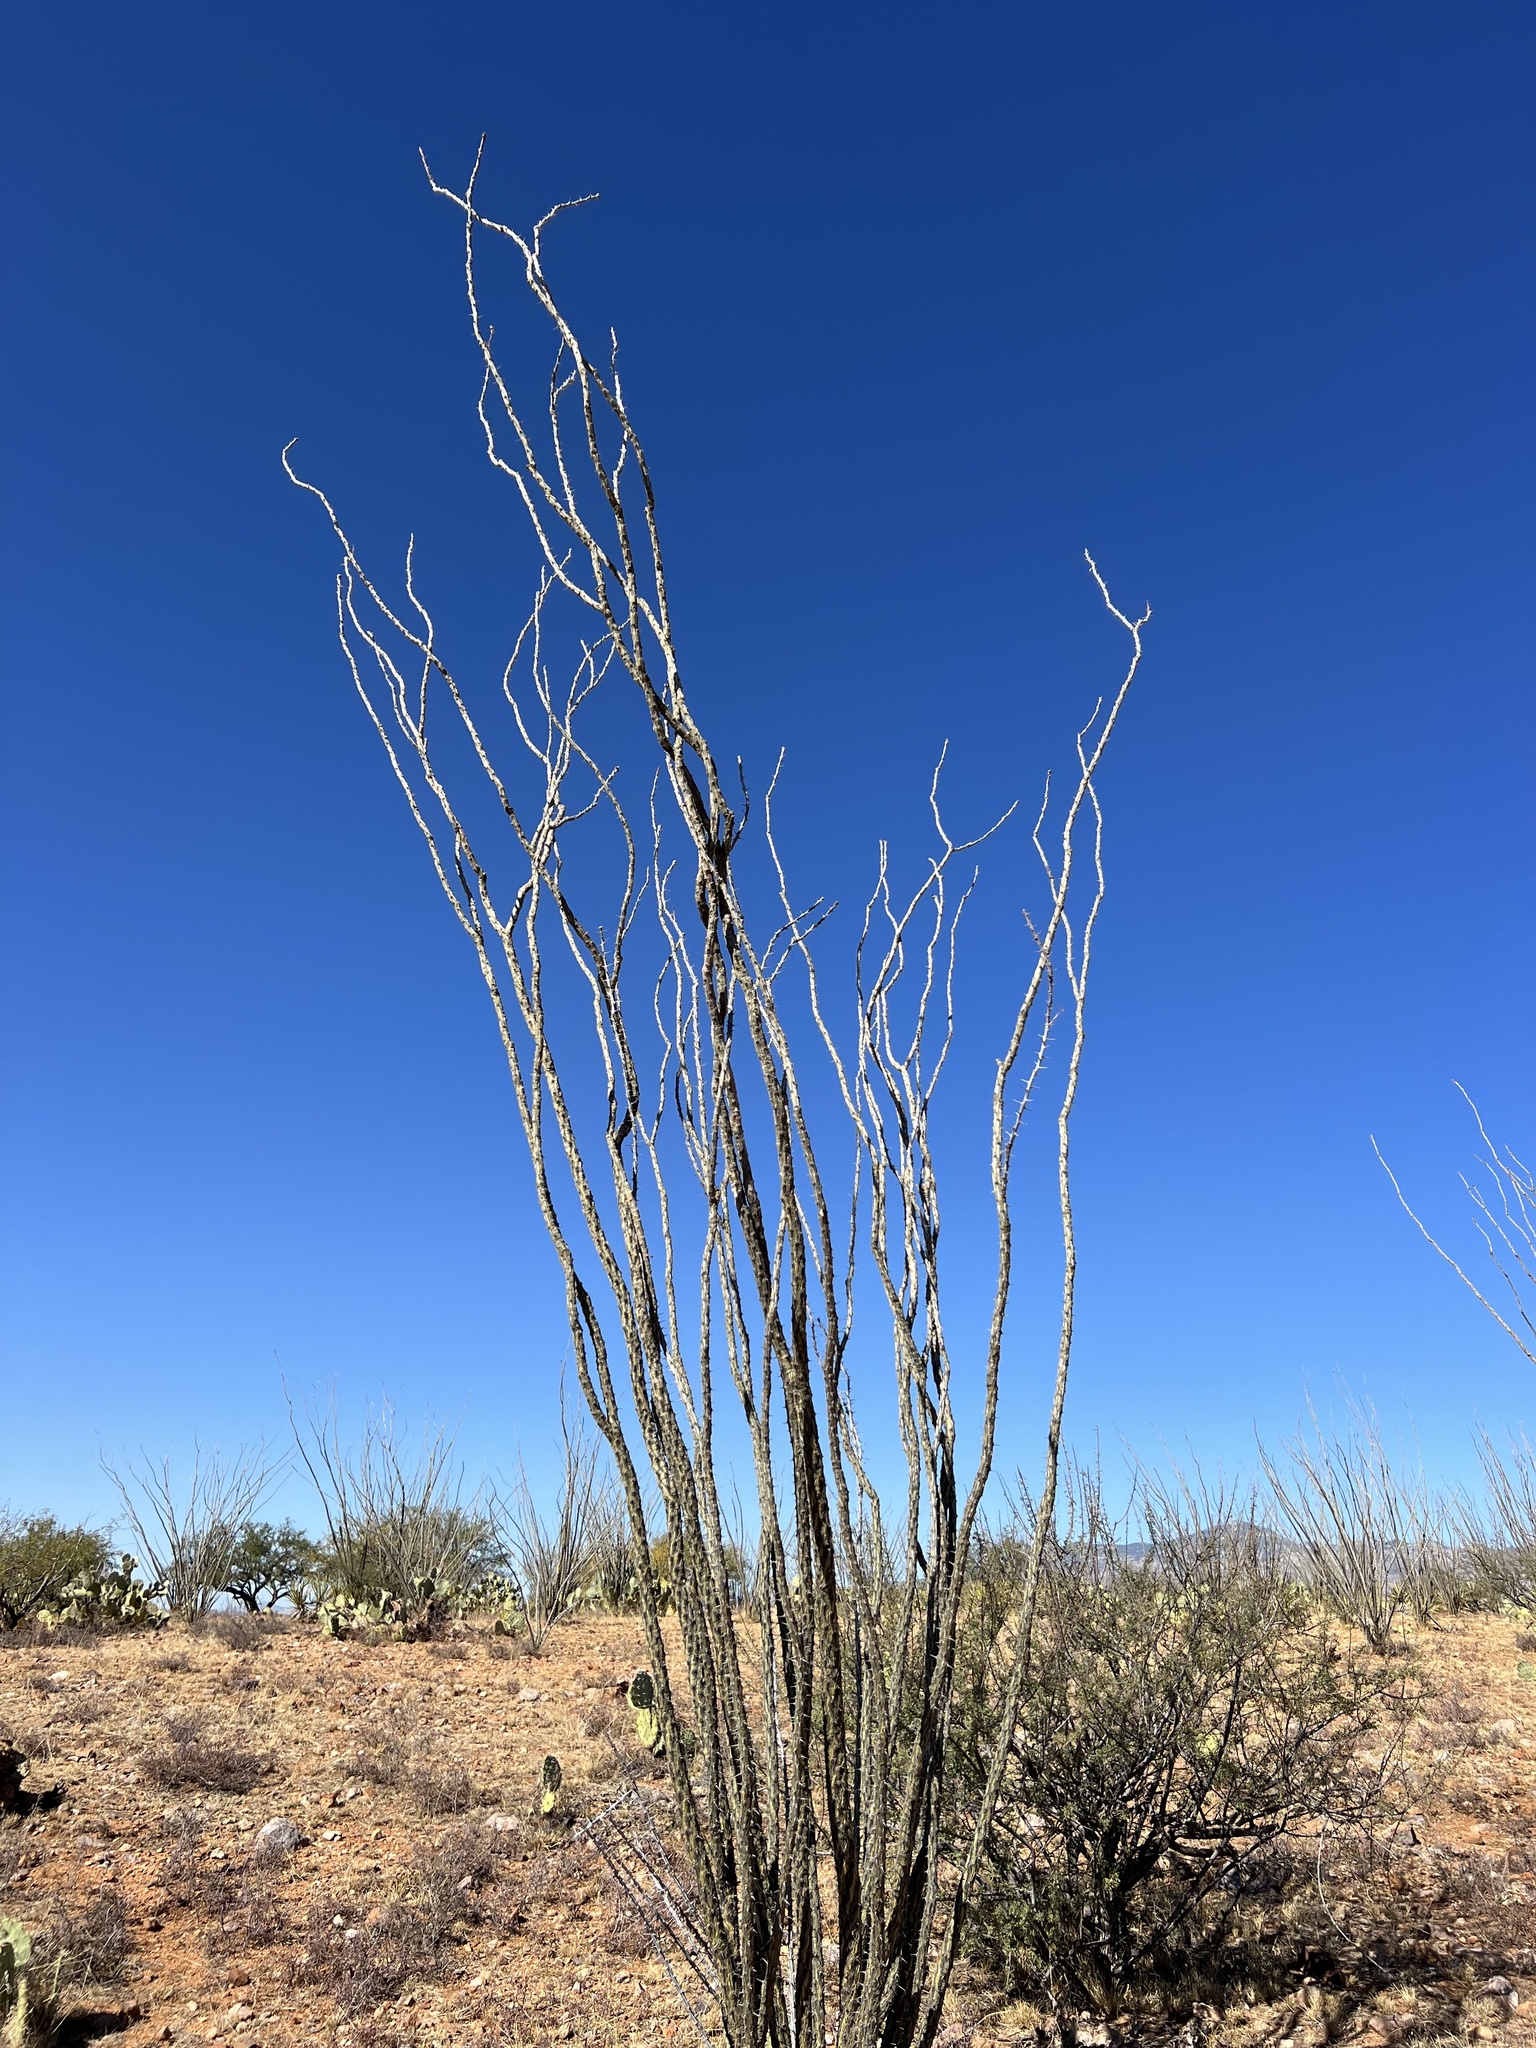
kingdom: Plantae
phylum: Tracheophyta
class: Magnoliopsida
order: Ericales
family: Fouquieriaceae
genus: Fouquieria
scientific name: Fouquieria splendens
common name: Vine-cactus
